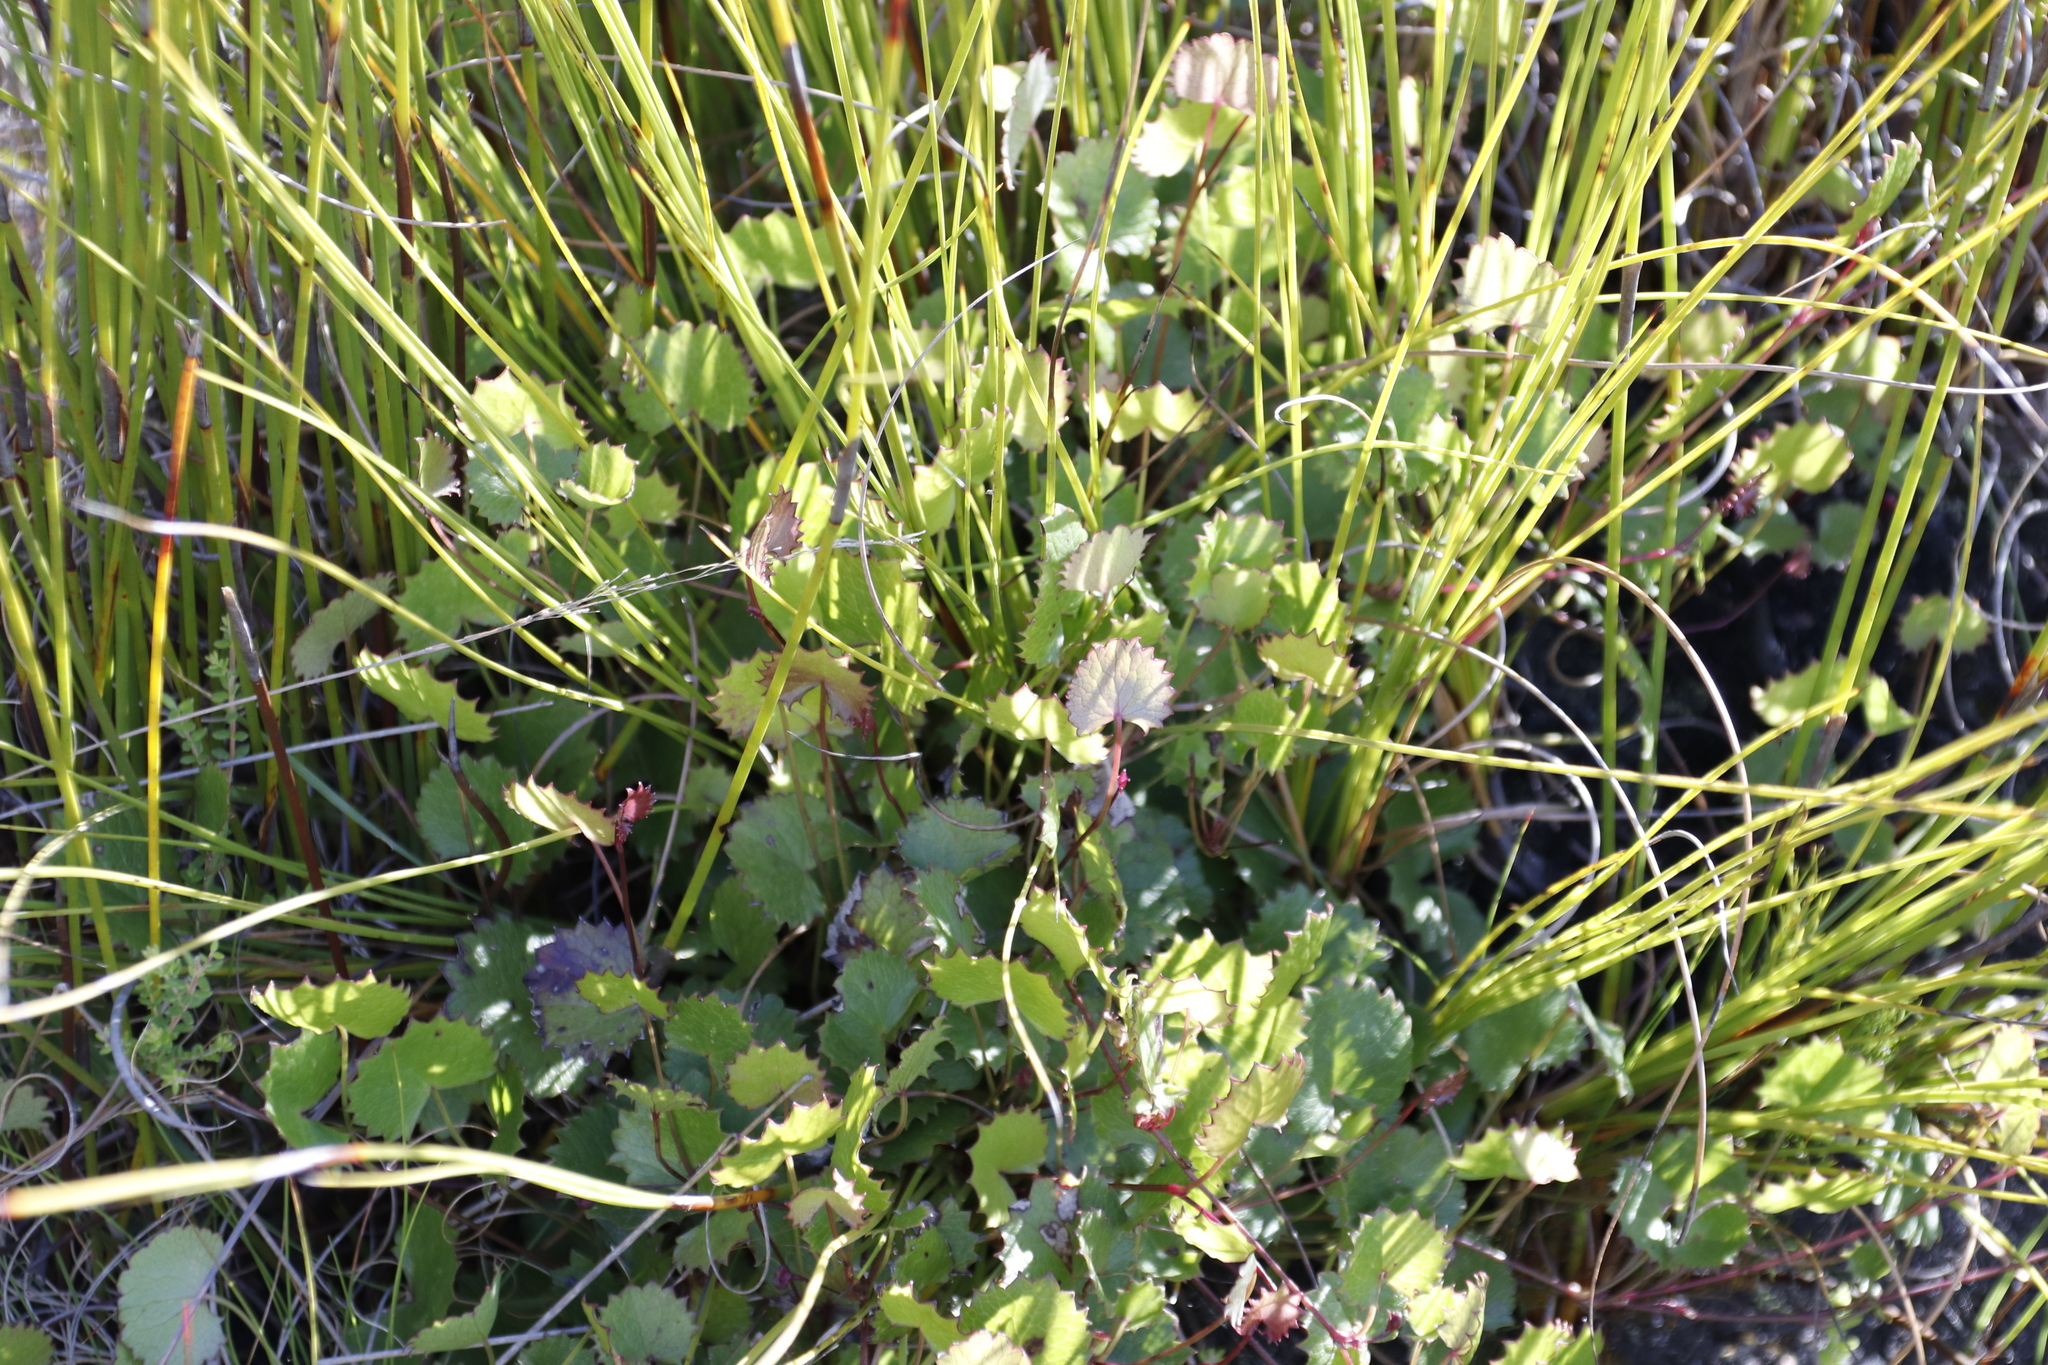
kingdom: Plantae
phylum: Tracheophyta
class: Magnoliopsida
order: Apiales
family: Apiaceae
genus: Centella
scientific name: Centella eriantha
